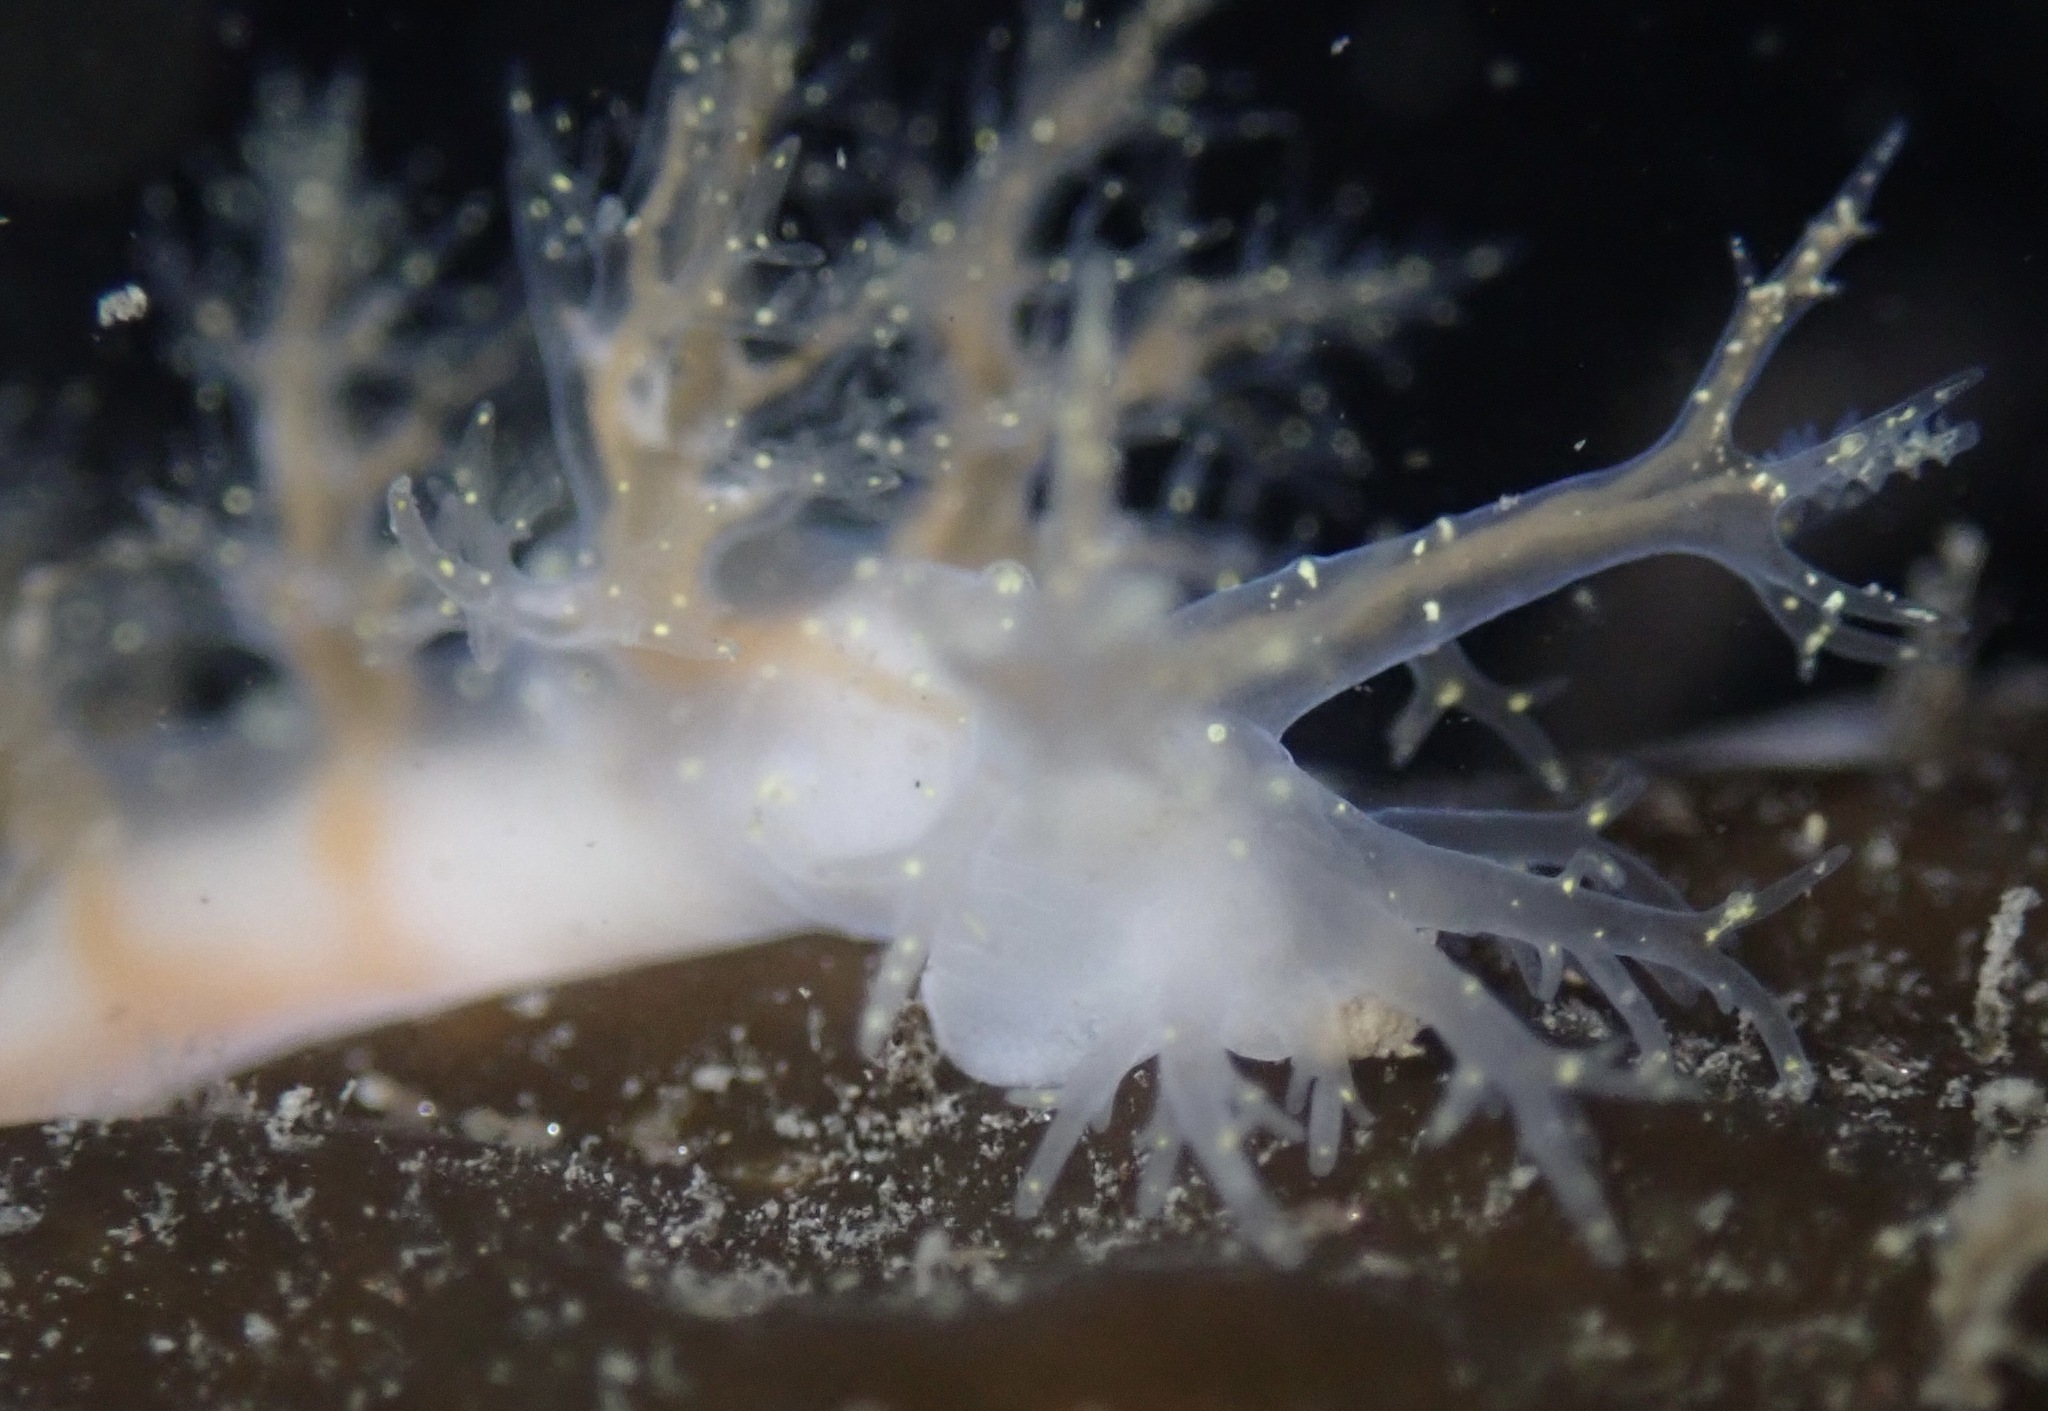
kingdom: Animalia
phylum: Mollusca
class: Gastropoda
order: Nudibranchia
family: Dendronotidae
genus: Dendronotus
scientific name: Dendronotus venustus
